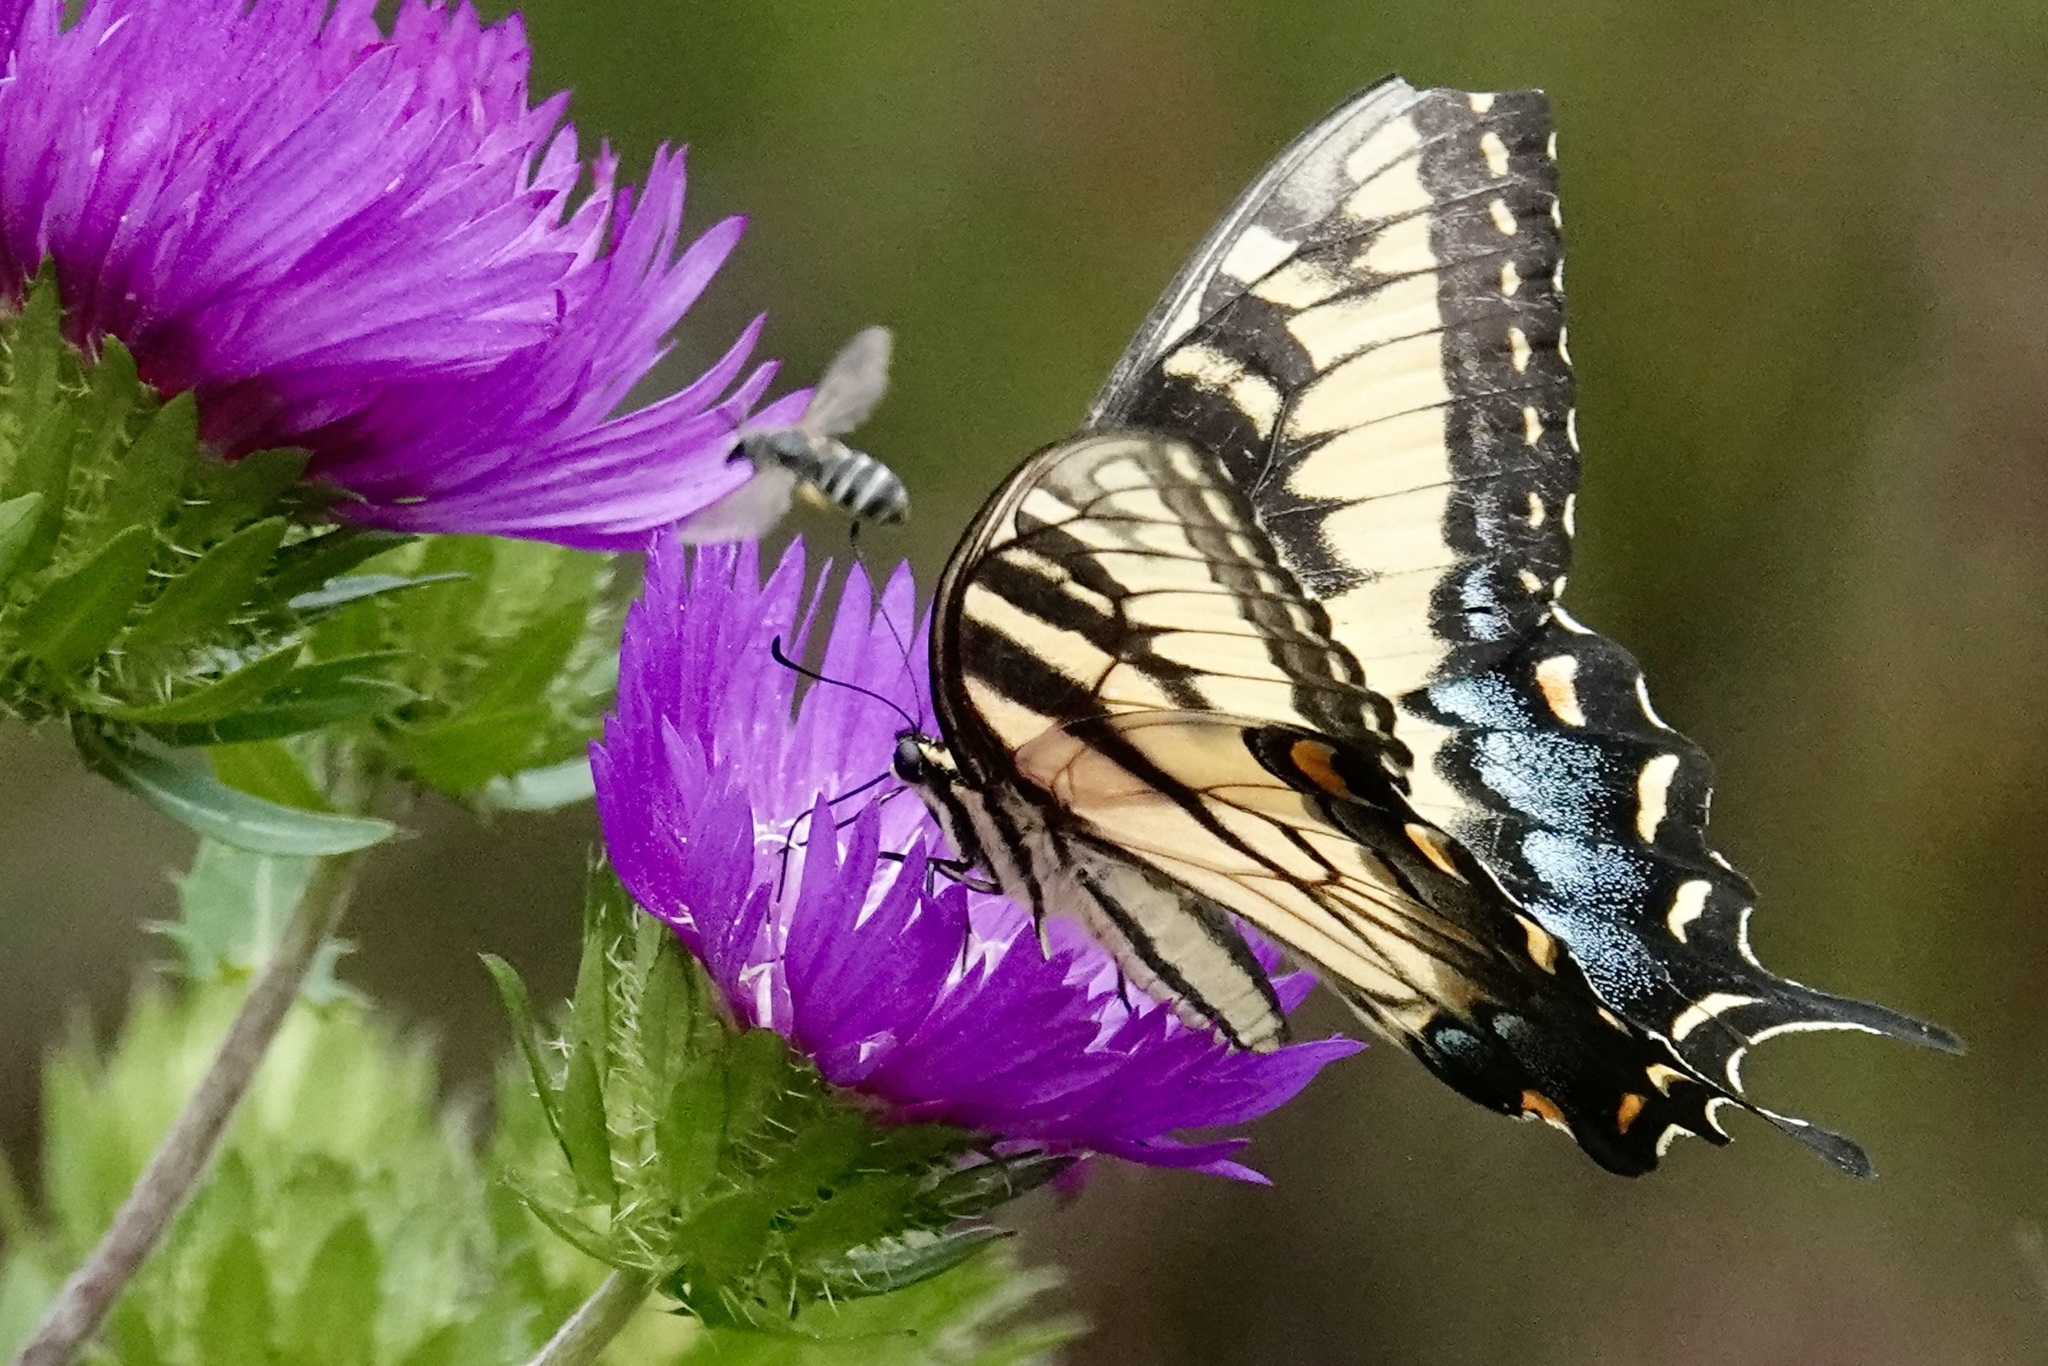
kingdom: Animalia
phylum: Arthropoda
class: Insecta
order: Lepidoptera
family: Papilionidae
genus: Papilio
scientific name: Papilio glaucus
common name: Tiger swallowtail
